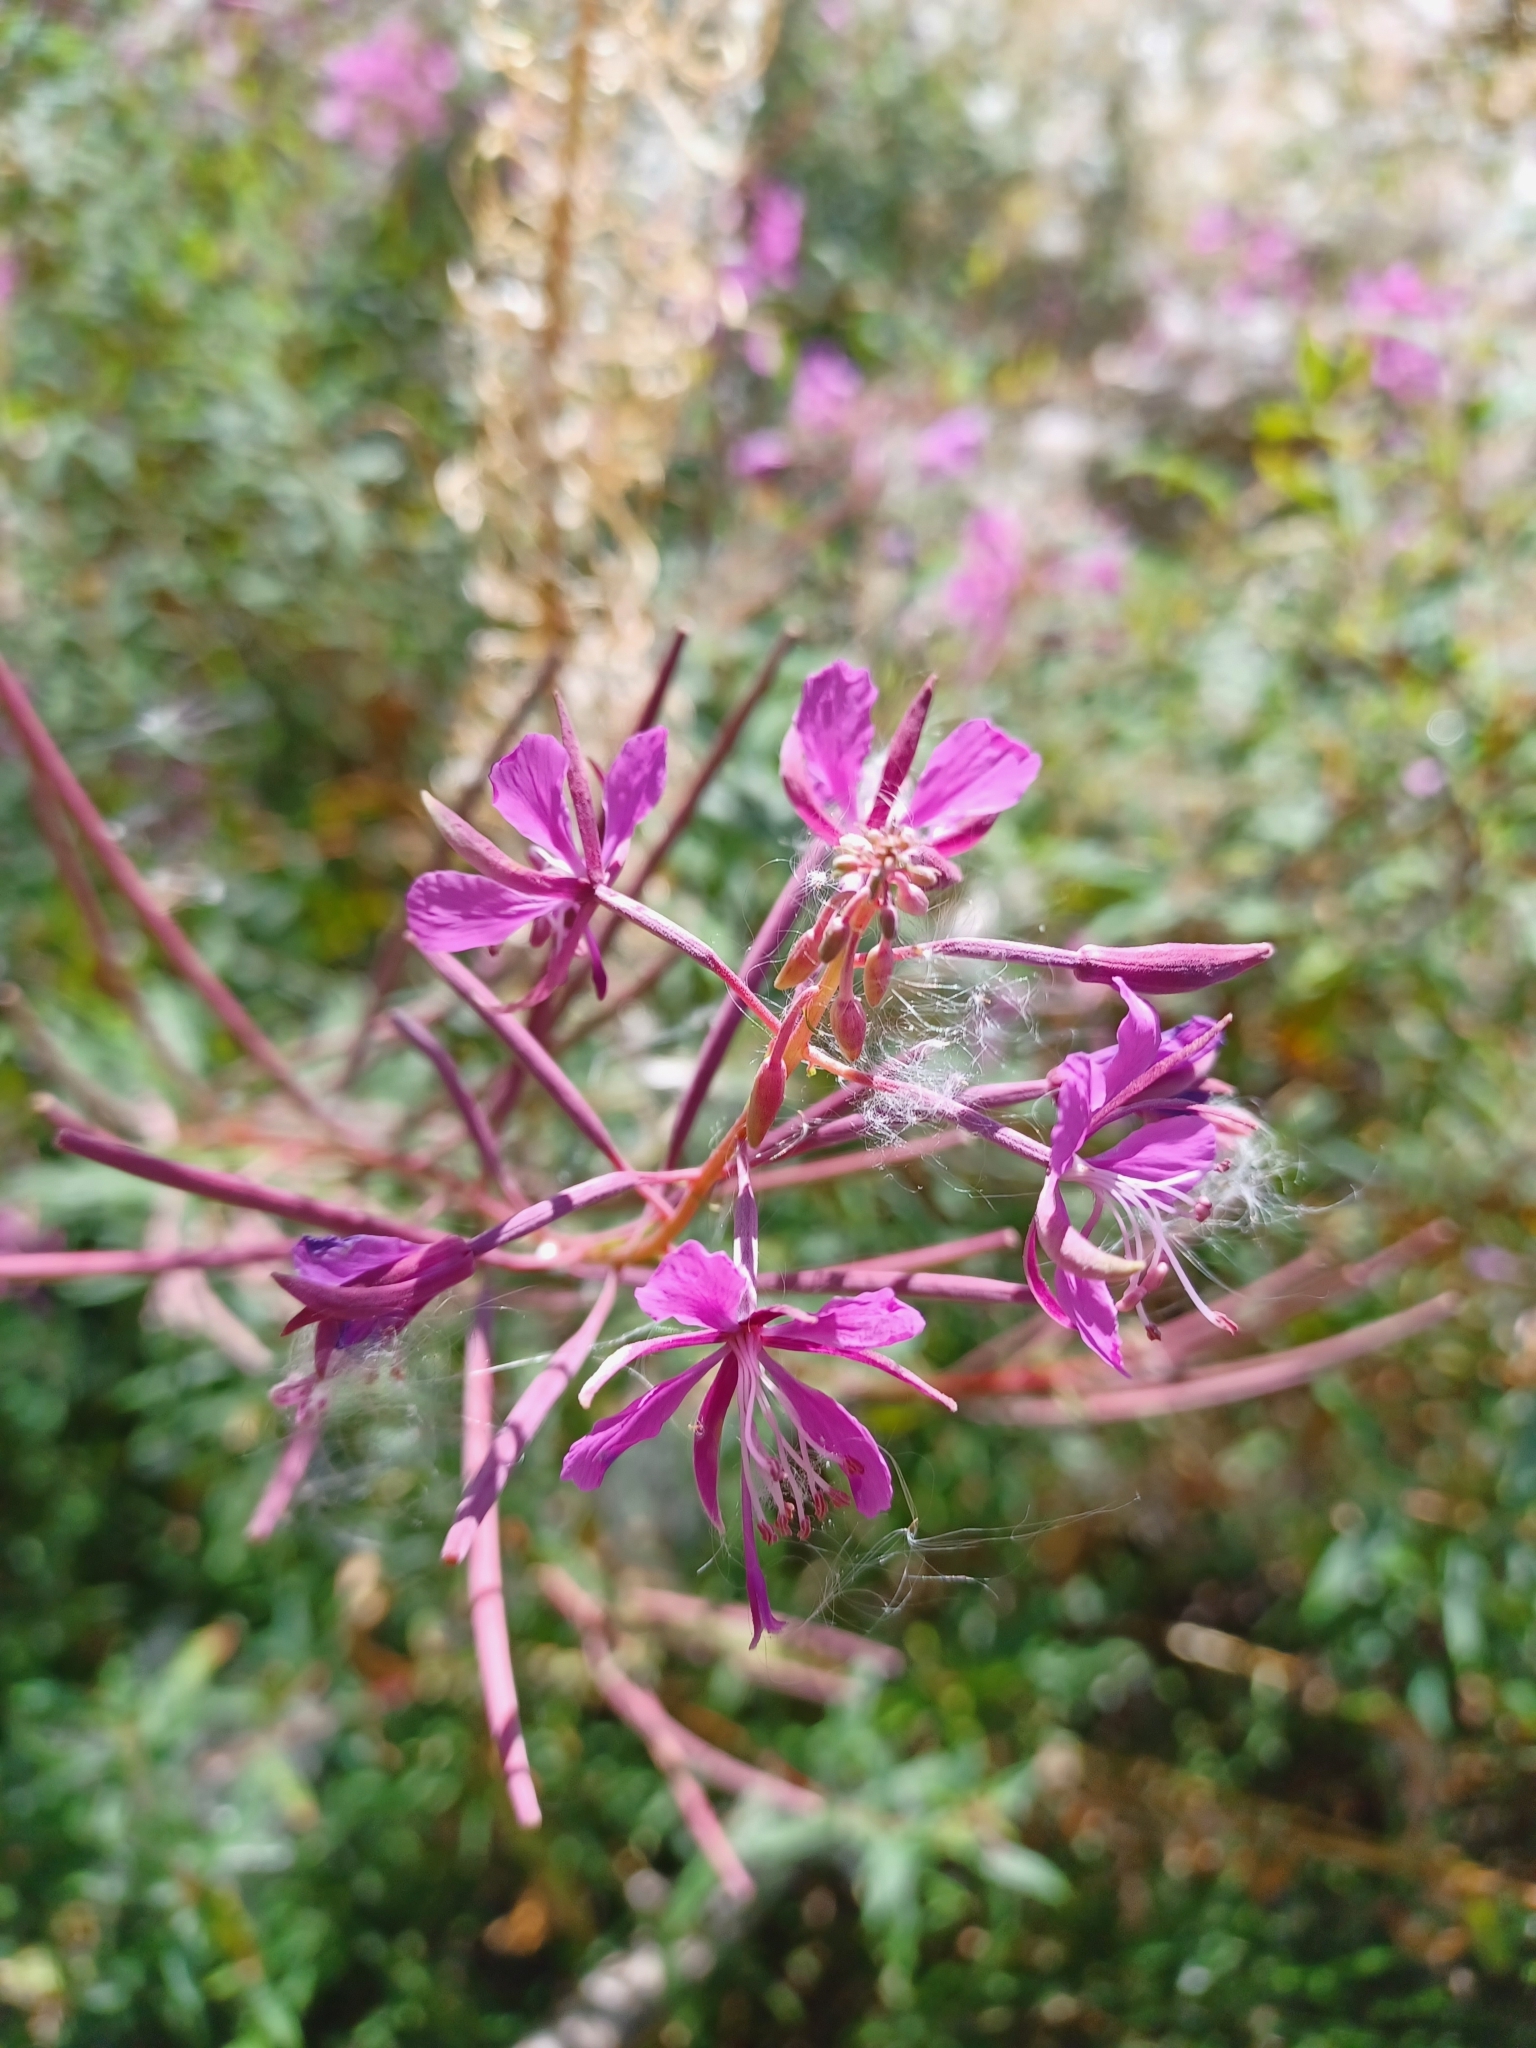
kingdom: Plantae
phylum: Tracheophyta
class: Magnoliopsida
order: Myrtales
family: Onagraceae
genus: Chamaenerion
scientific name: Chamaenerion angustifolium
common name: Fireweed
